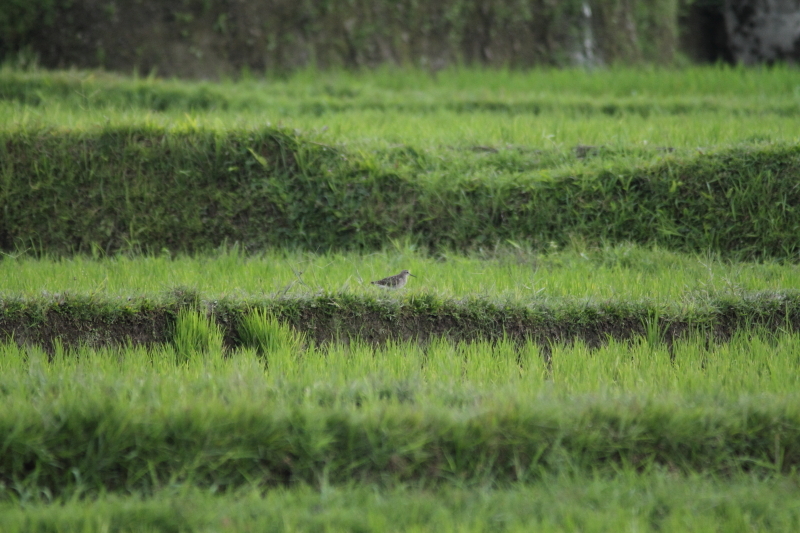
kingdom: Animalia
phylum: Chordata
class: Aves
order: Charadriiformes
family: Scolopacidae
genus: Tringa
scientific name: Tringa glareola
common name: Wood sandpiper
